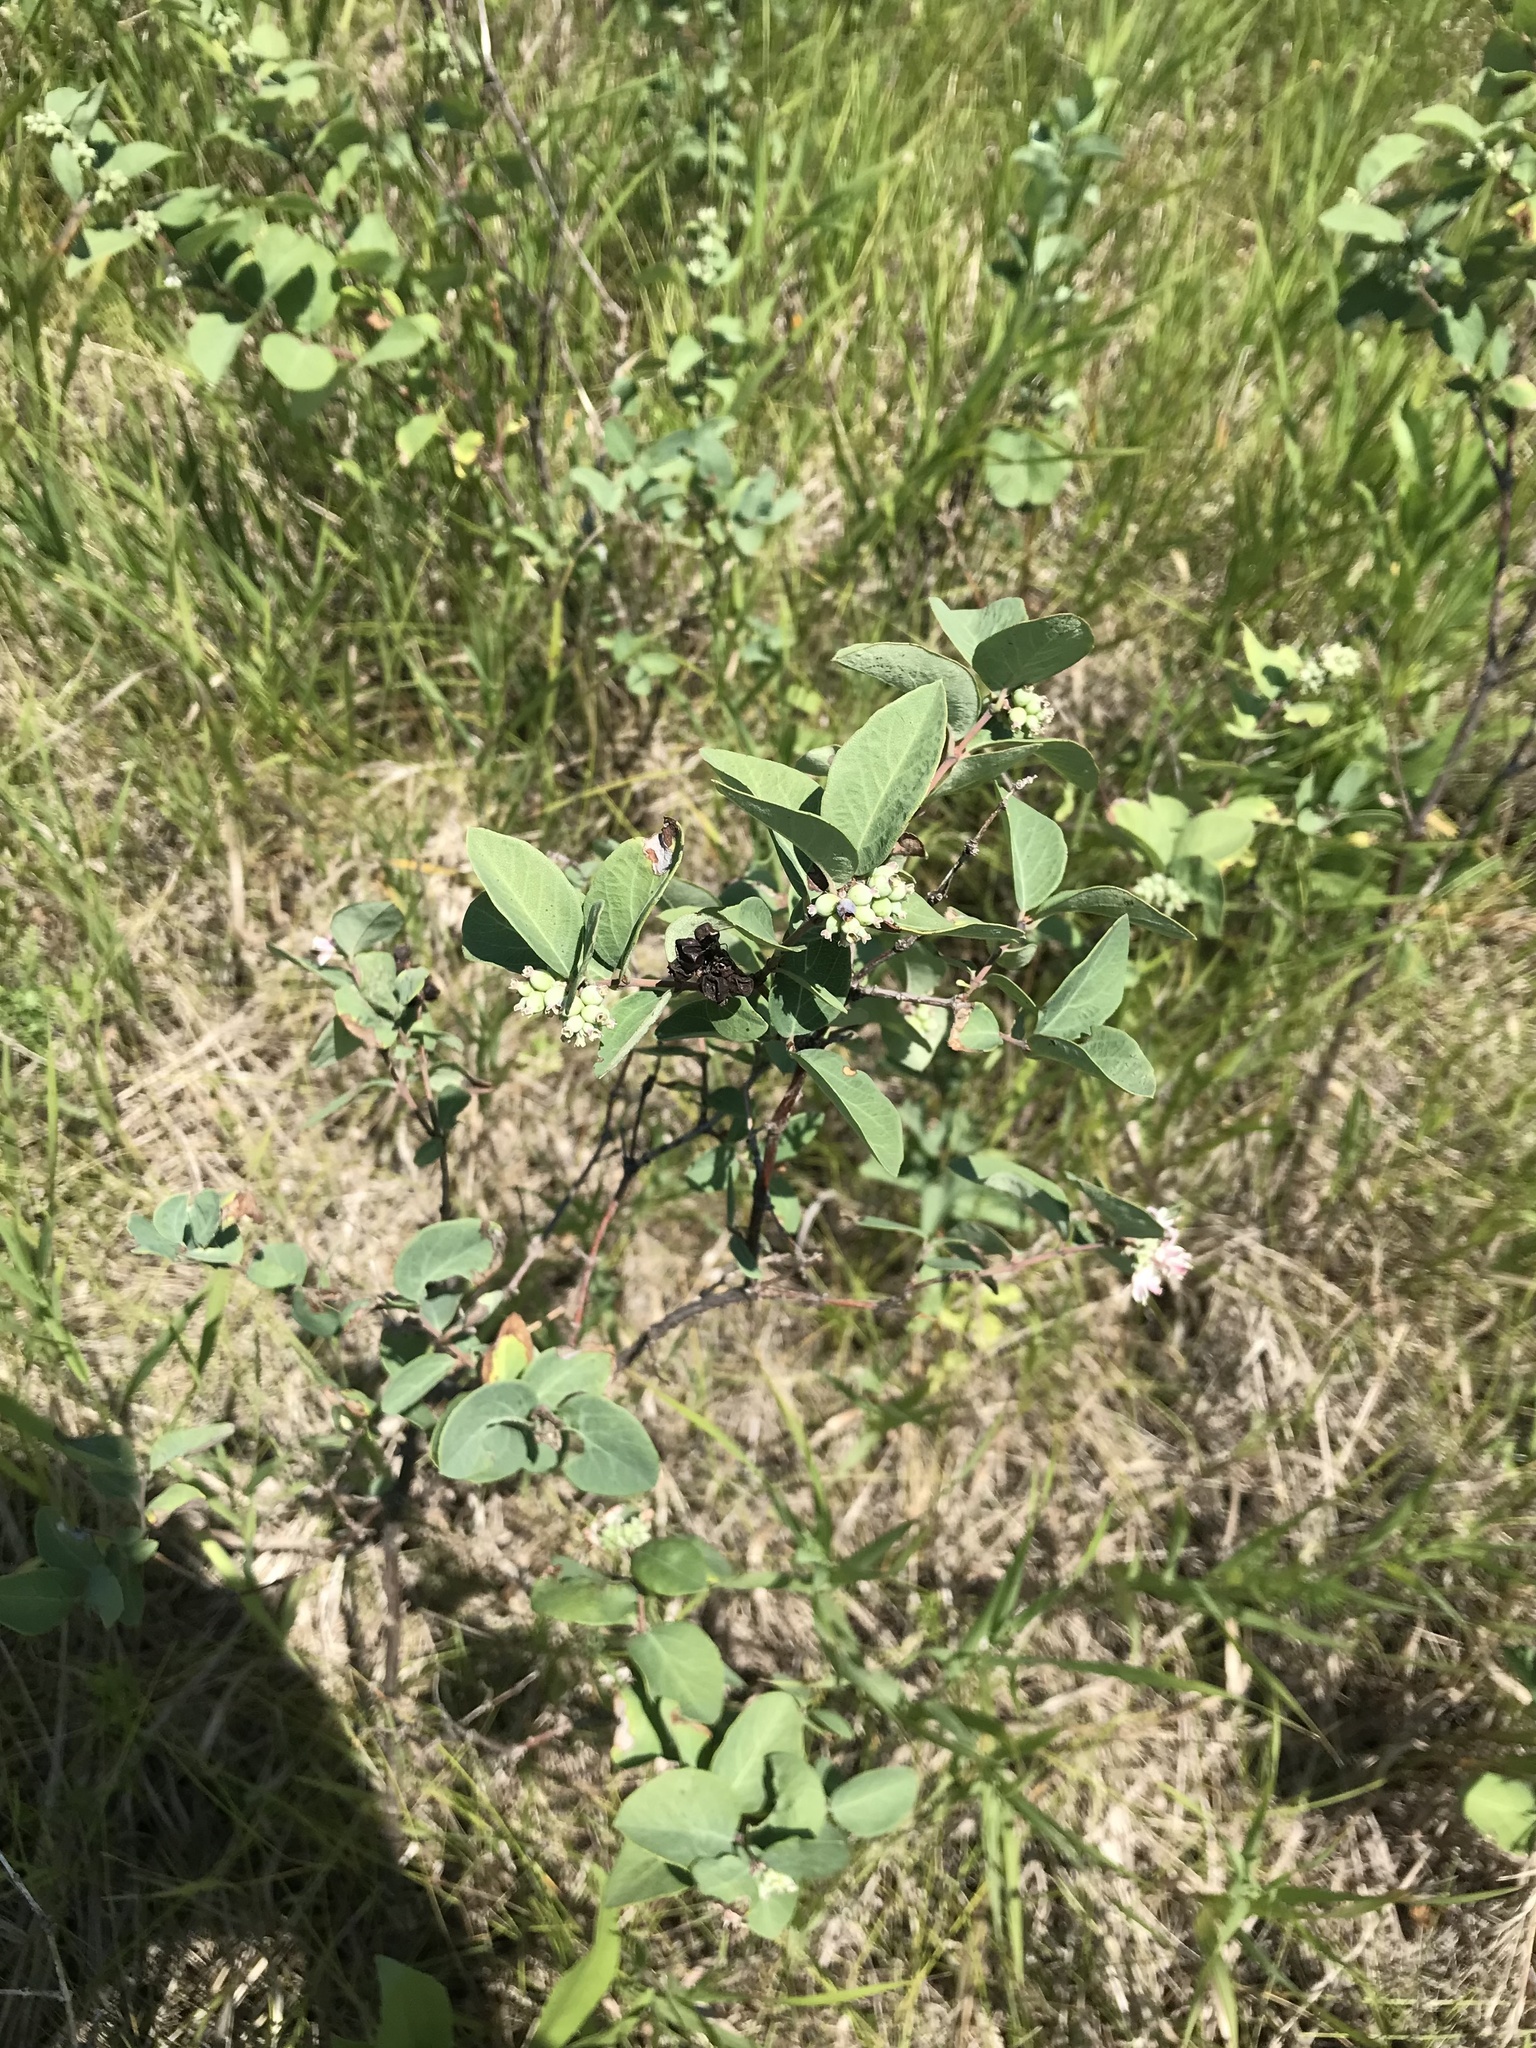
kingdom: Plantae
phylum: Tracheophyta
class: Magnoliopsida
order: Dipsacales
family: Caprifoliaceae
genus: Symphoricarpos
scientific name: Symphoricarpos occidentalis
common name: Wolfberry
